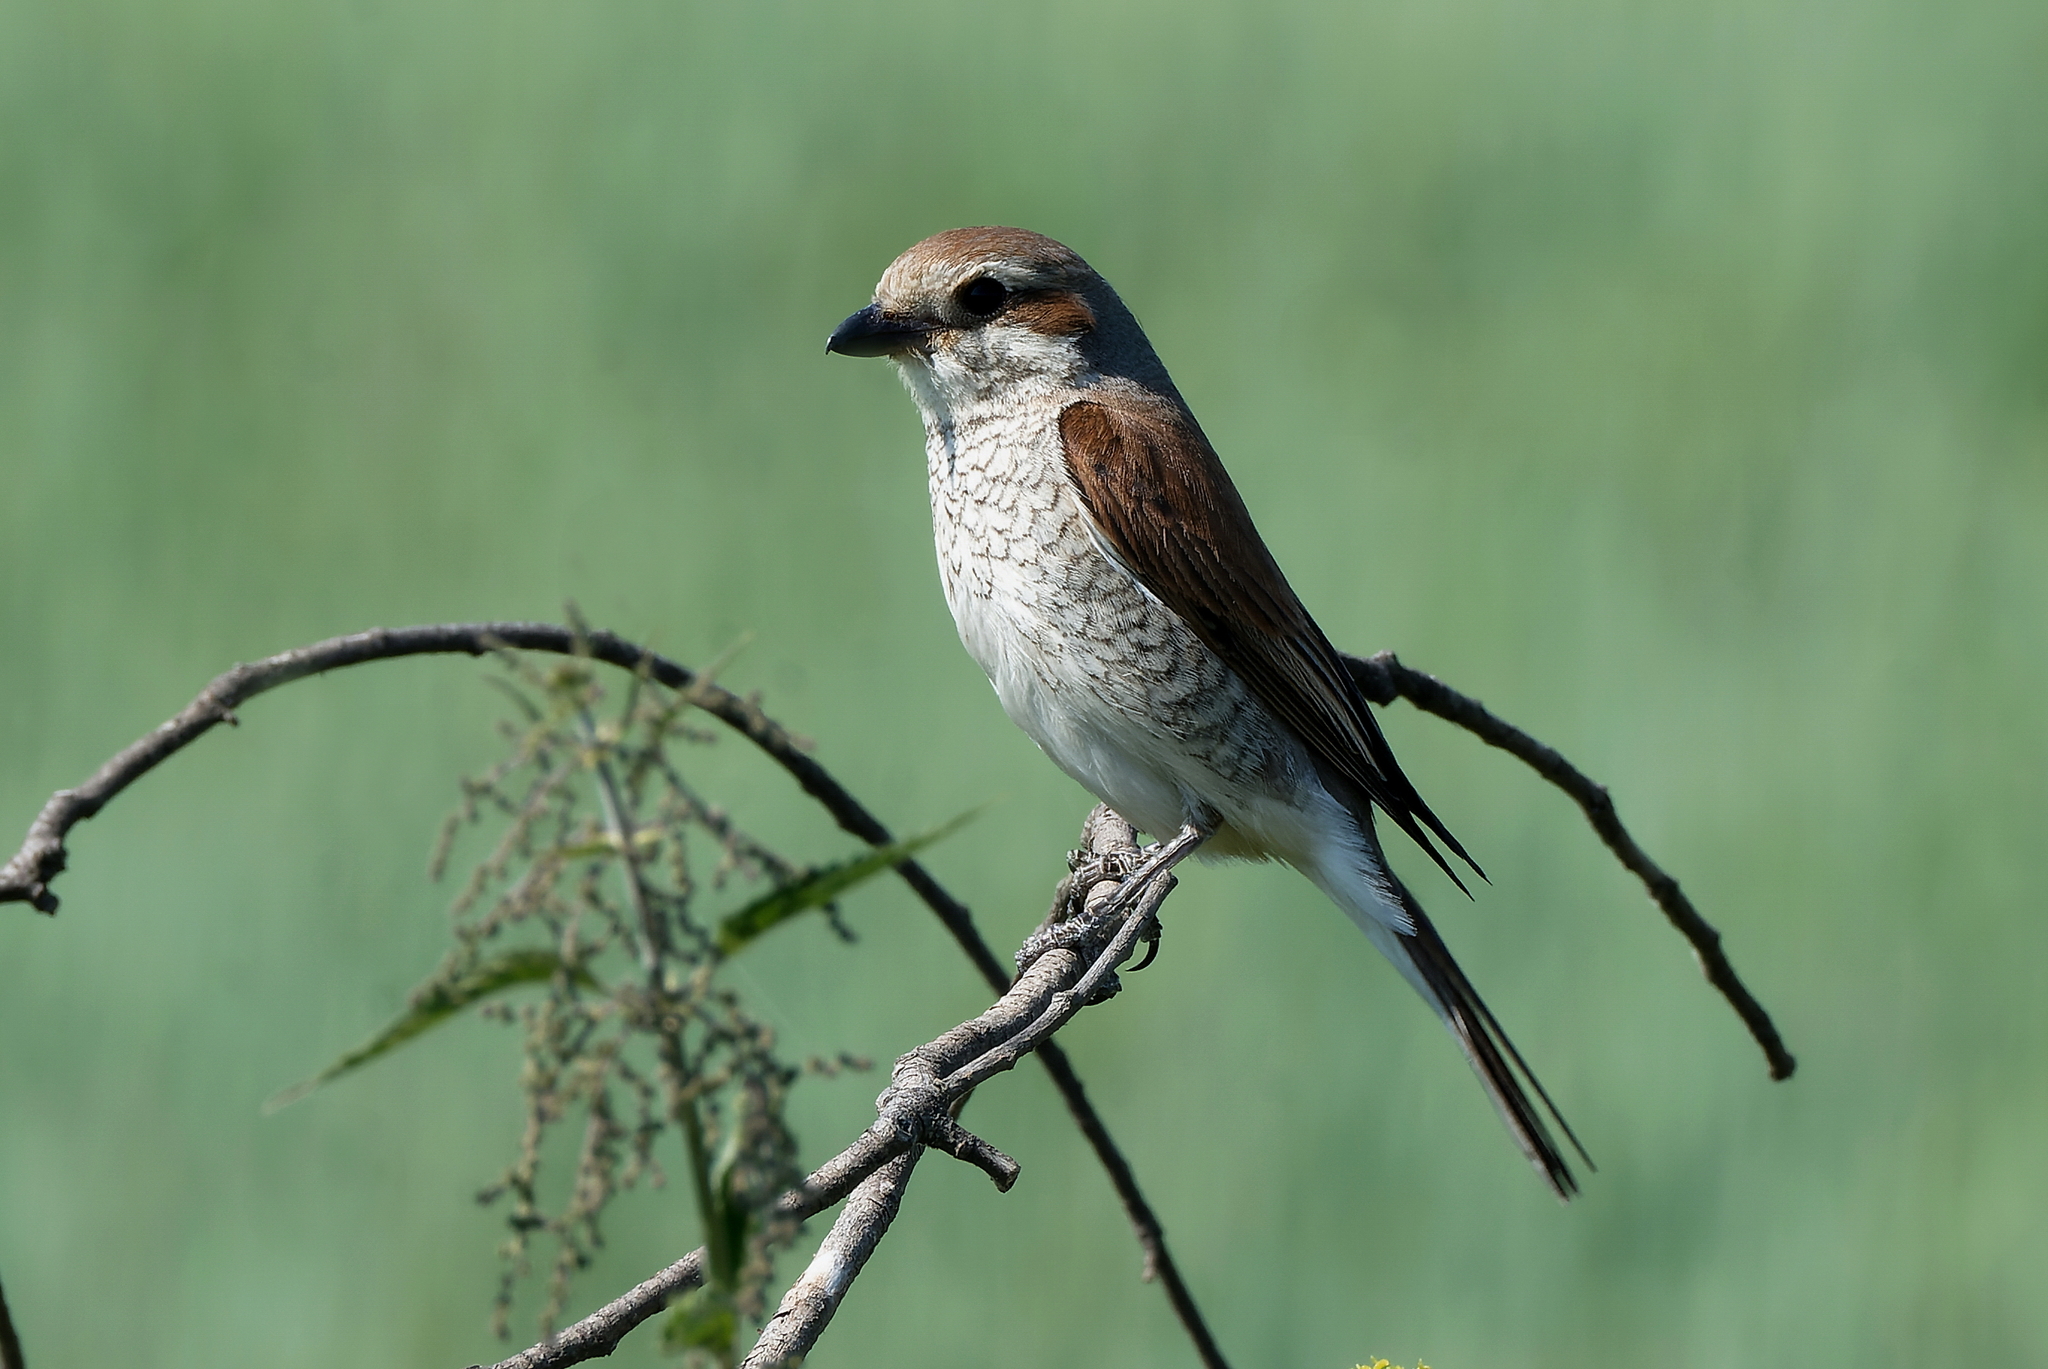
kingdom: Animalia
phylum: Chordata
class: Aves
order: Passeriformes
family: Laniidae
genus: Lanius
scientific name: Lanius collurio
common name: Red-backed shrike
